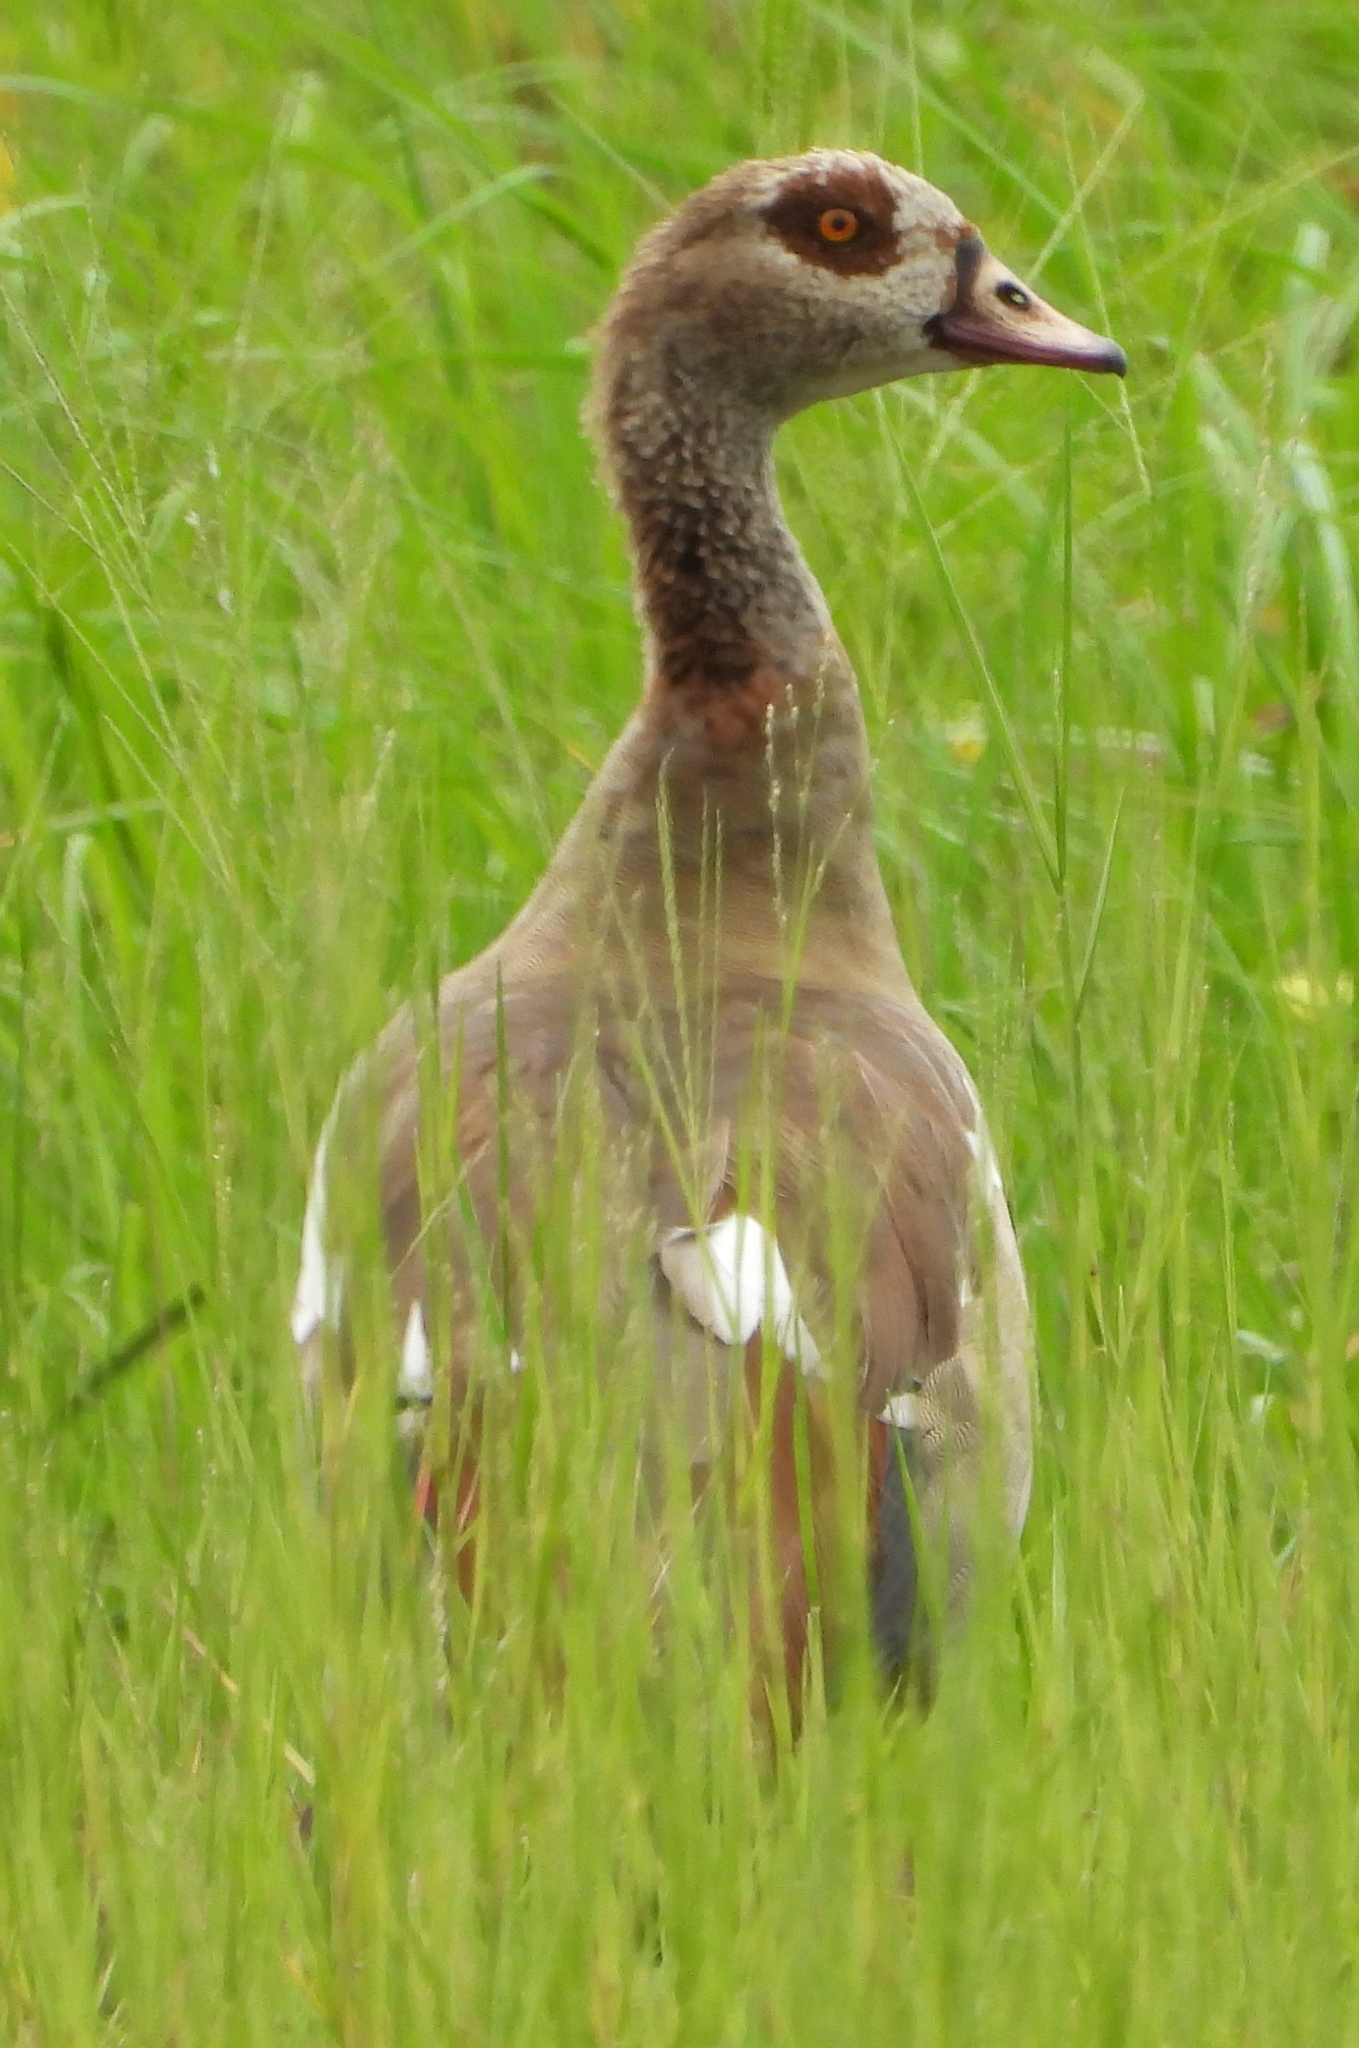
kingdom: Animalia
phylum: Chordata
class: Aves
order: Anseriformes
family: Anatidae
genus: Alopochen
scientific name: Alopochen aegyptiaca
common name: Egyptian goose
